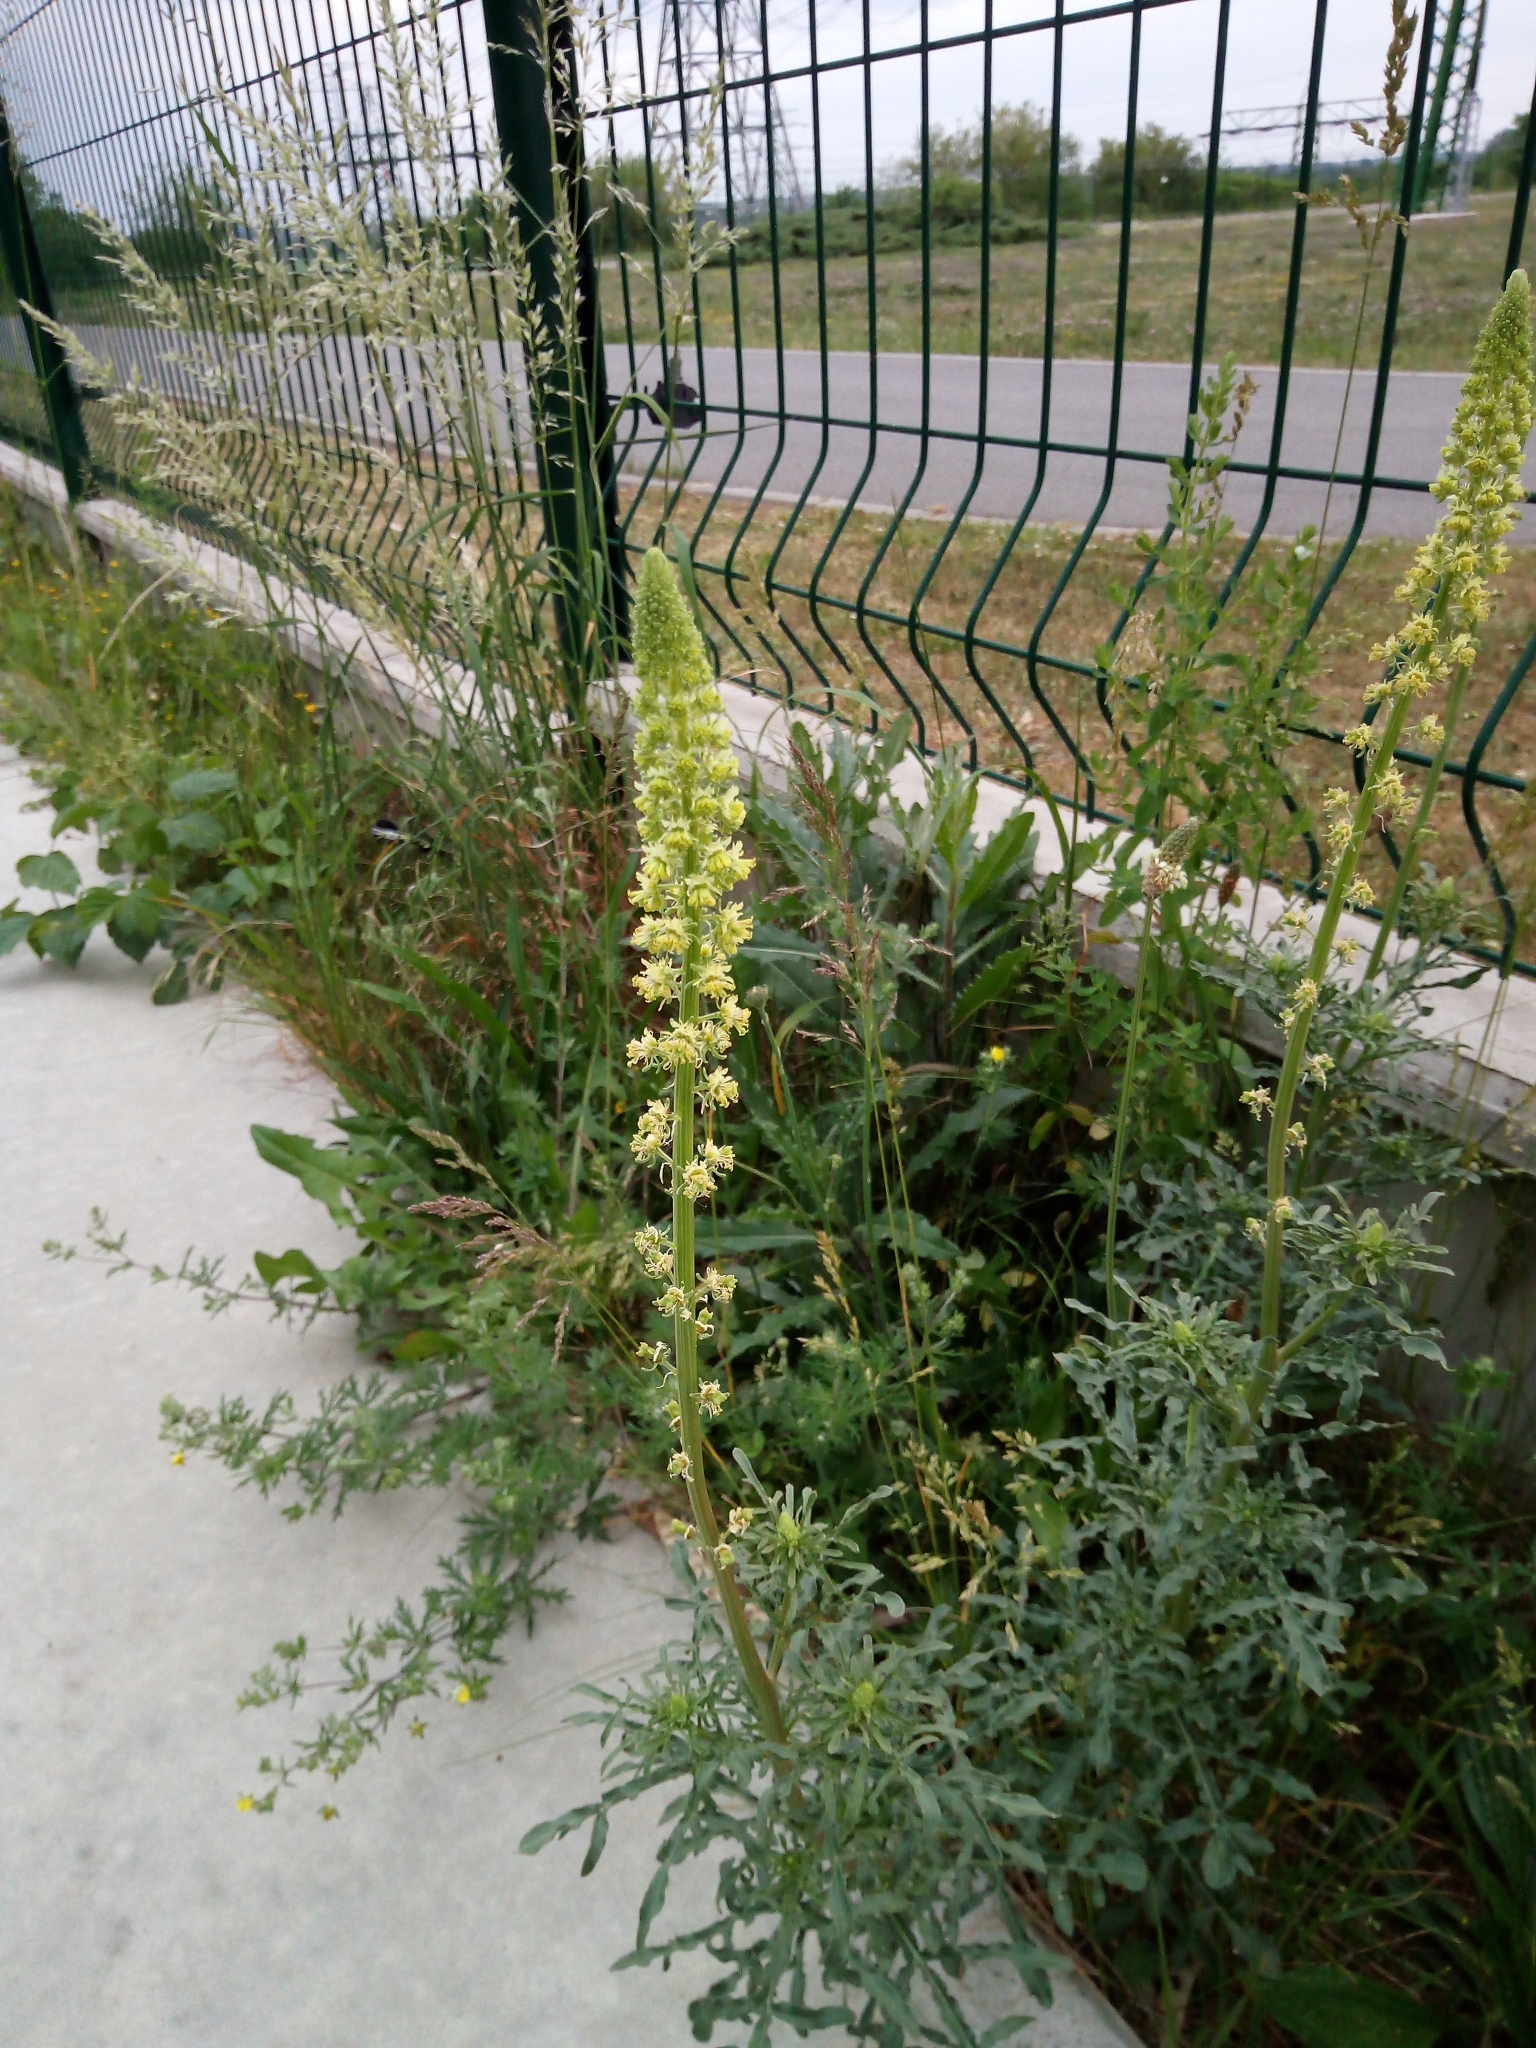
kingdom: Plantae
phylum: Tracheophyta
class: Magnoliopsida
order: Brassicales
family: Resedaceae
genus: Reseda
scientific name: Reseda lutea
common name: Wild mignonette
